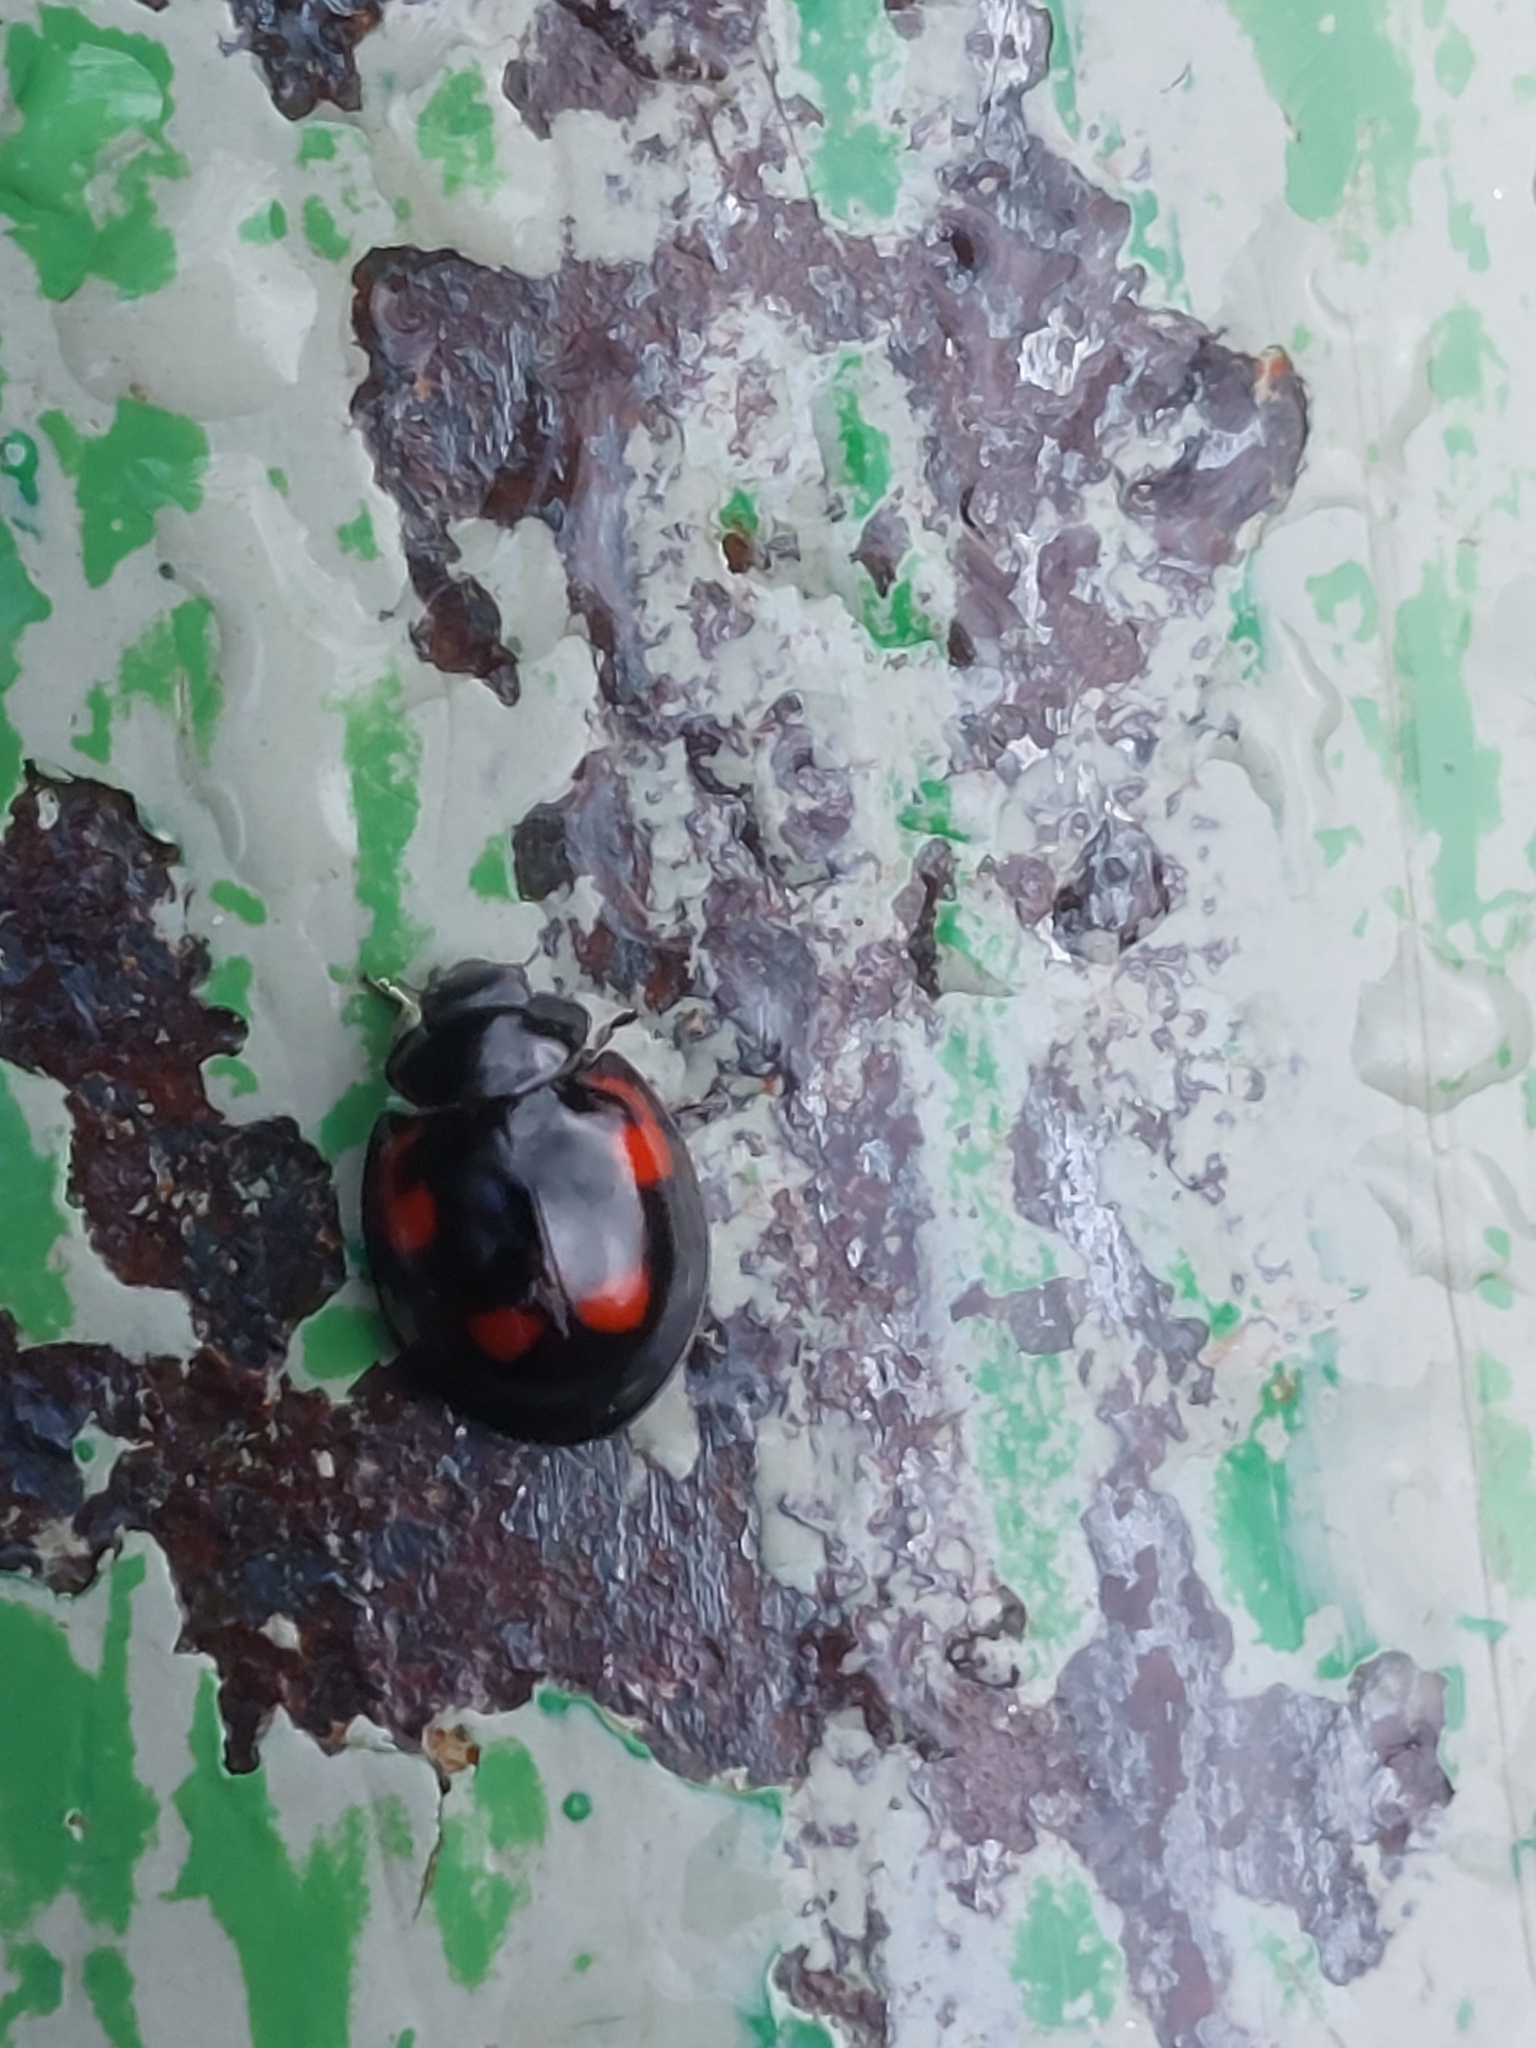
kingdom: Animalia
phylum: Arthropoda
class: Insecta
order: Coleoptera
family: Coccinellidae
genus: Brumus
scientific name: Brumus quadripustulatus
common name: Ladybird beetle
